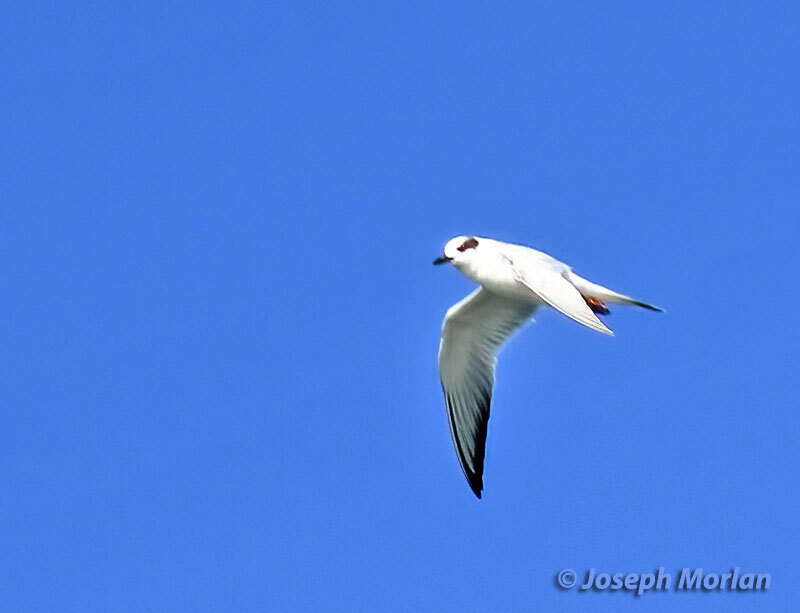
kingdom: Animalia
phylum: Chordata
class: Aves
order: Charadriiformes
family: Laridae
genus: Sterna
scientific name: Sterna forsteri
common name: Forster's tern
